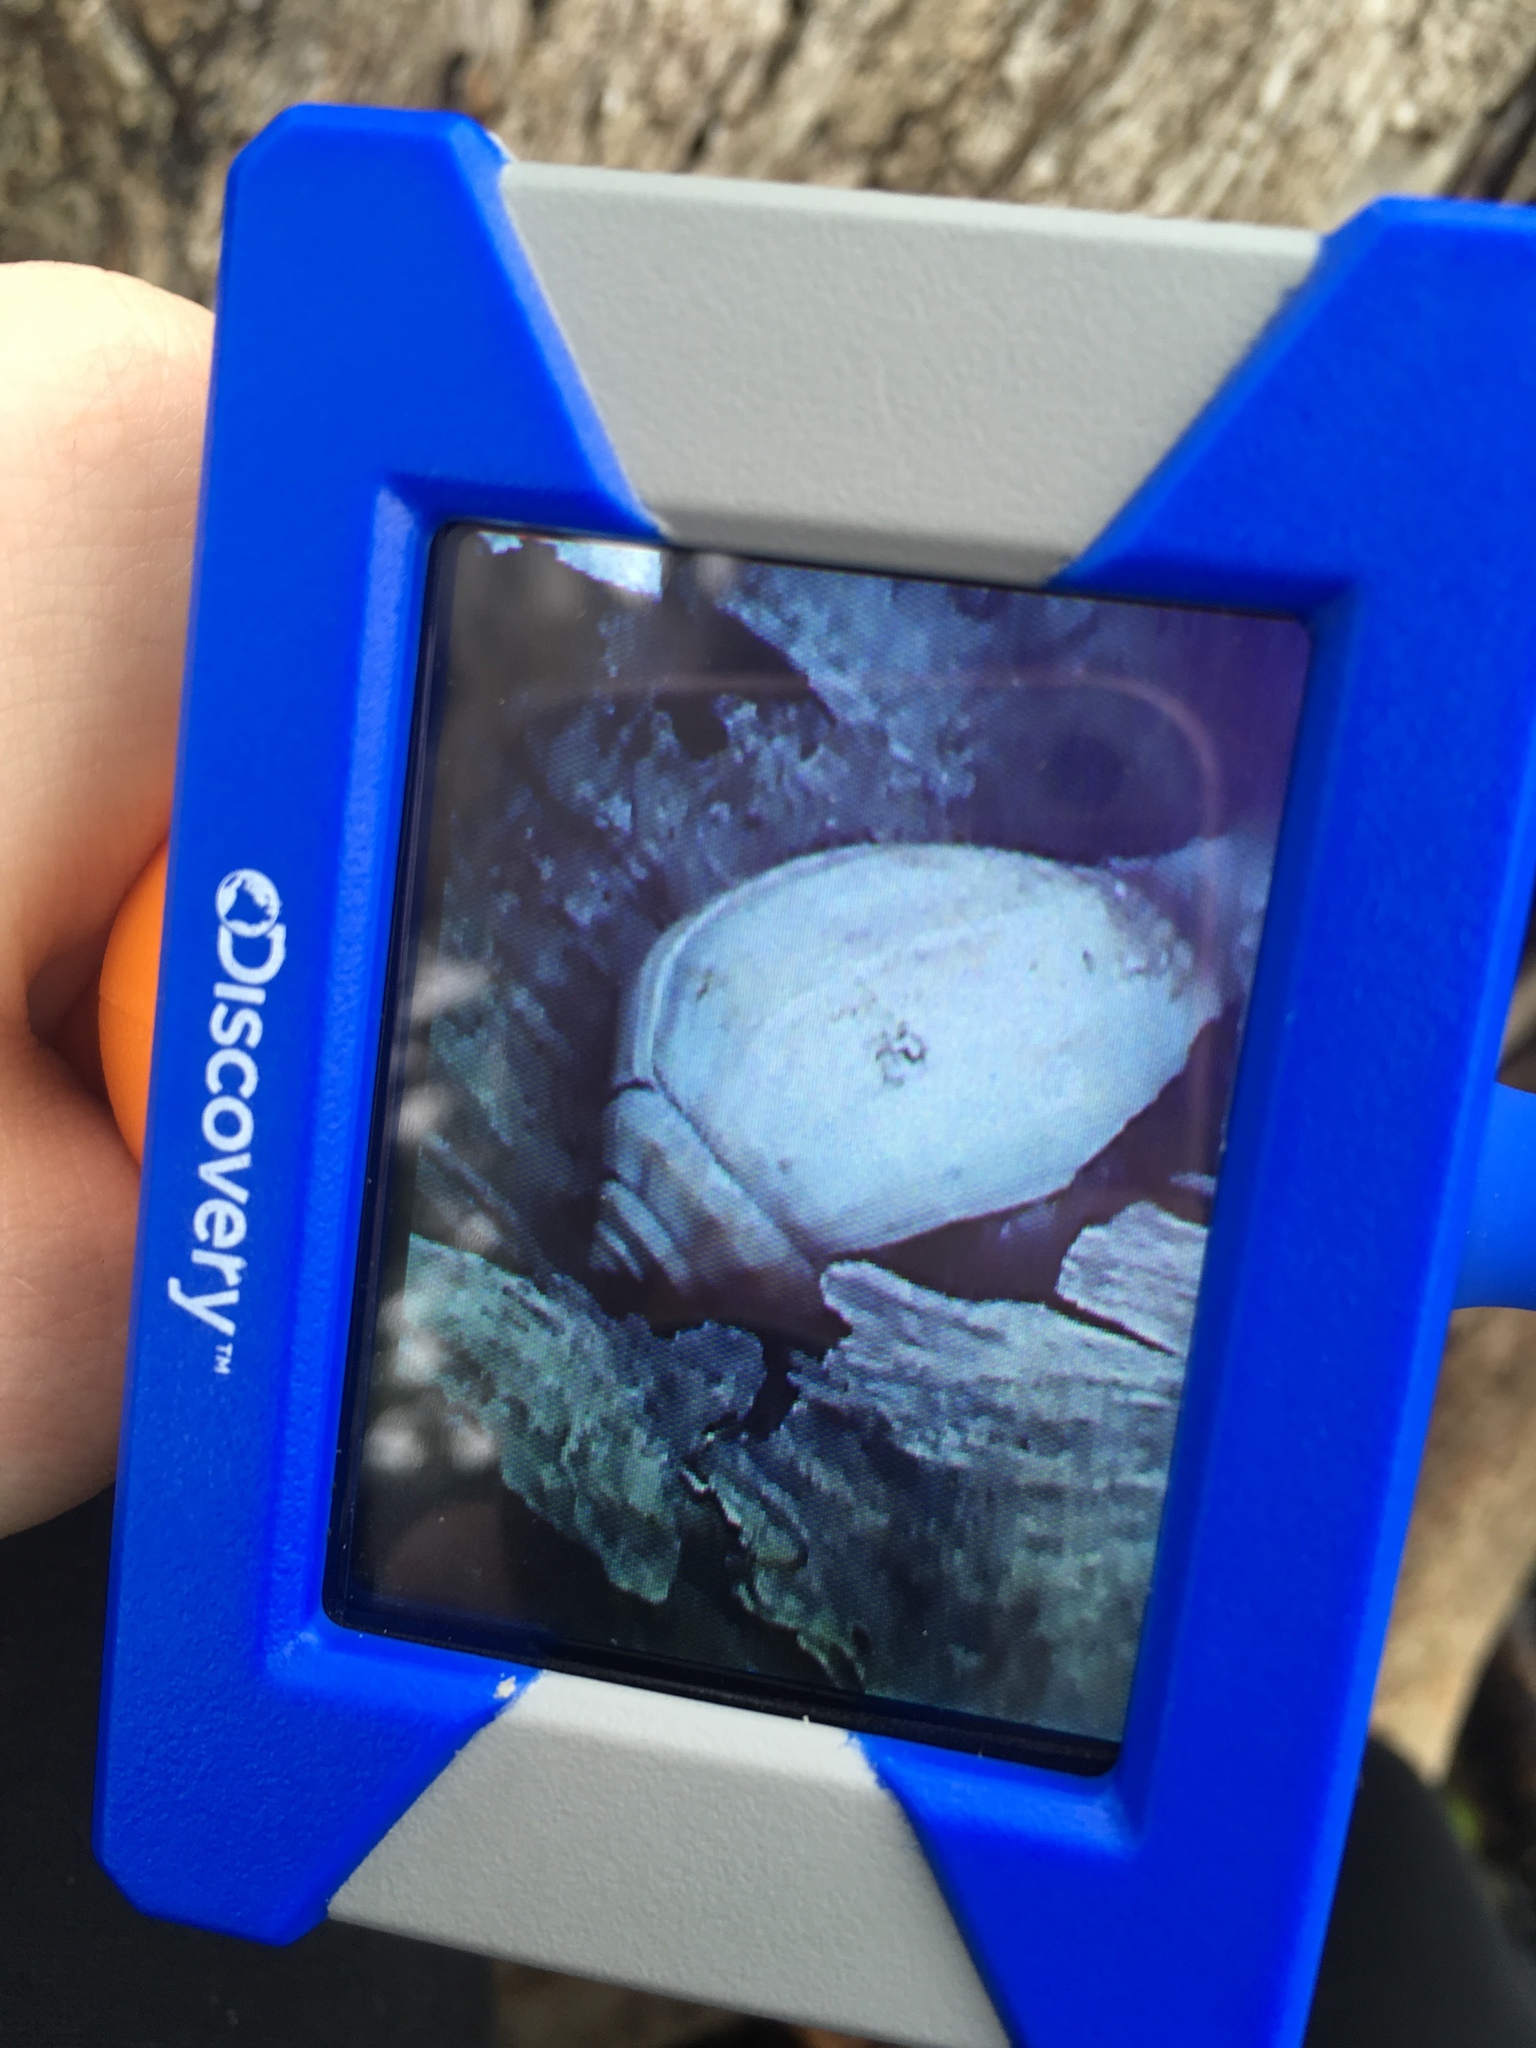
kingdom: Animalia
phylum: Arthropoda
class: Malacostraca
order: Decapoda
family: Coenobitidae
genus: Coenobita
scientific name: Coenobita clypeatus
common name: Caribbean hermit crab
